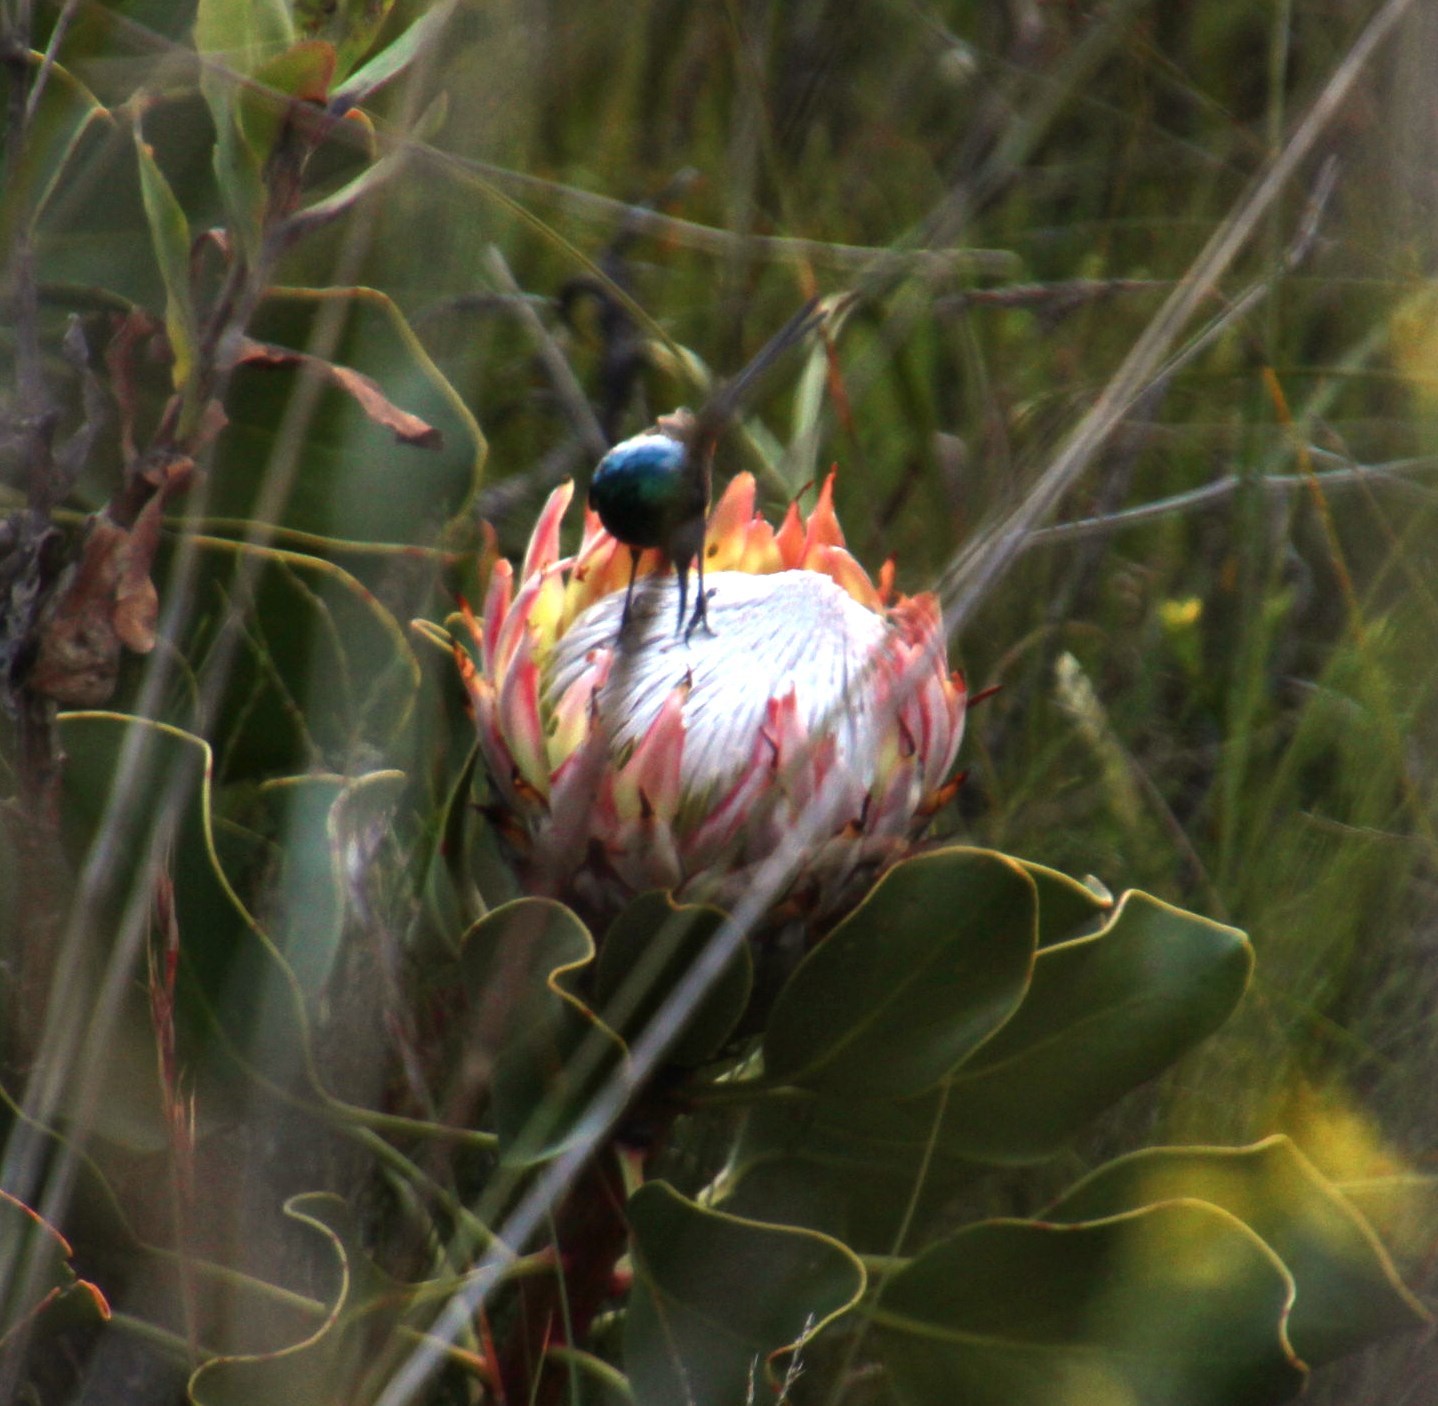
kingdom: Animalia
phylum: Chordata
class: Aves
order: Passeriformes
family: Nectariniidae
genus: Anthobaphes
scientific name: Anthobaphes violacea
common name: Orange-breasted sunbird
